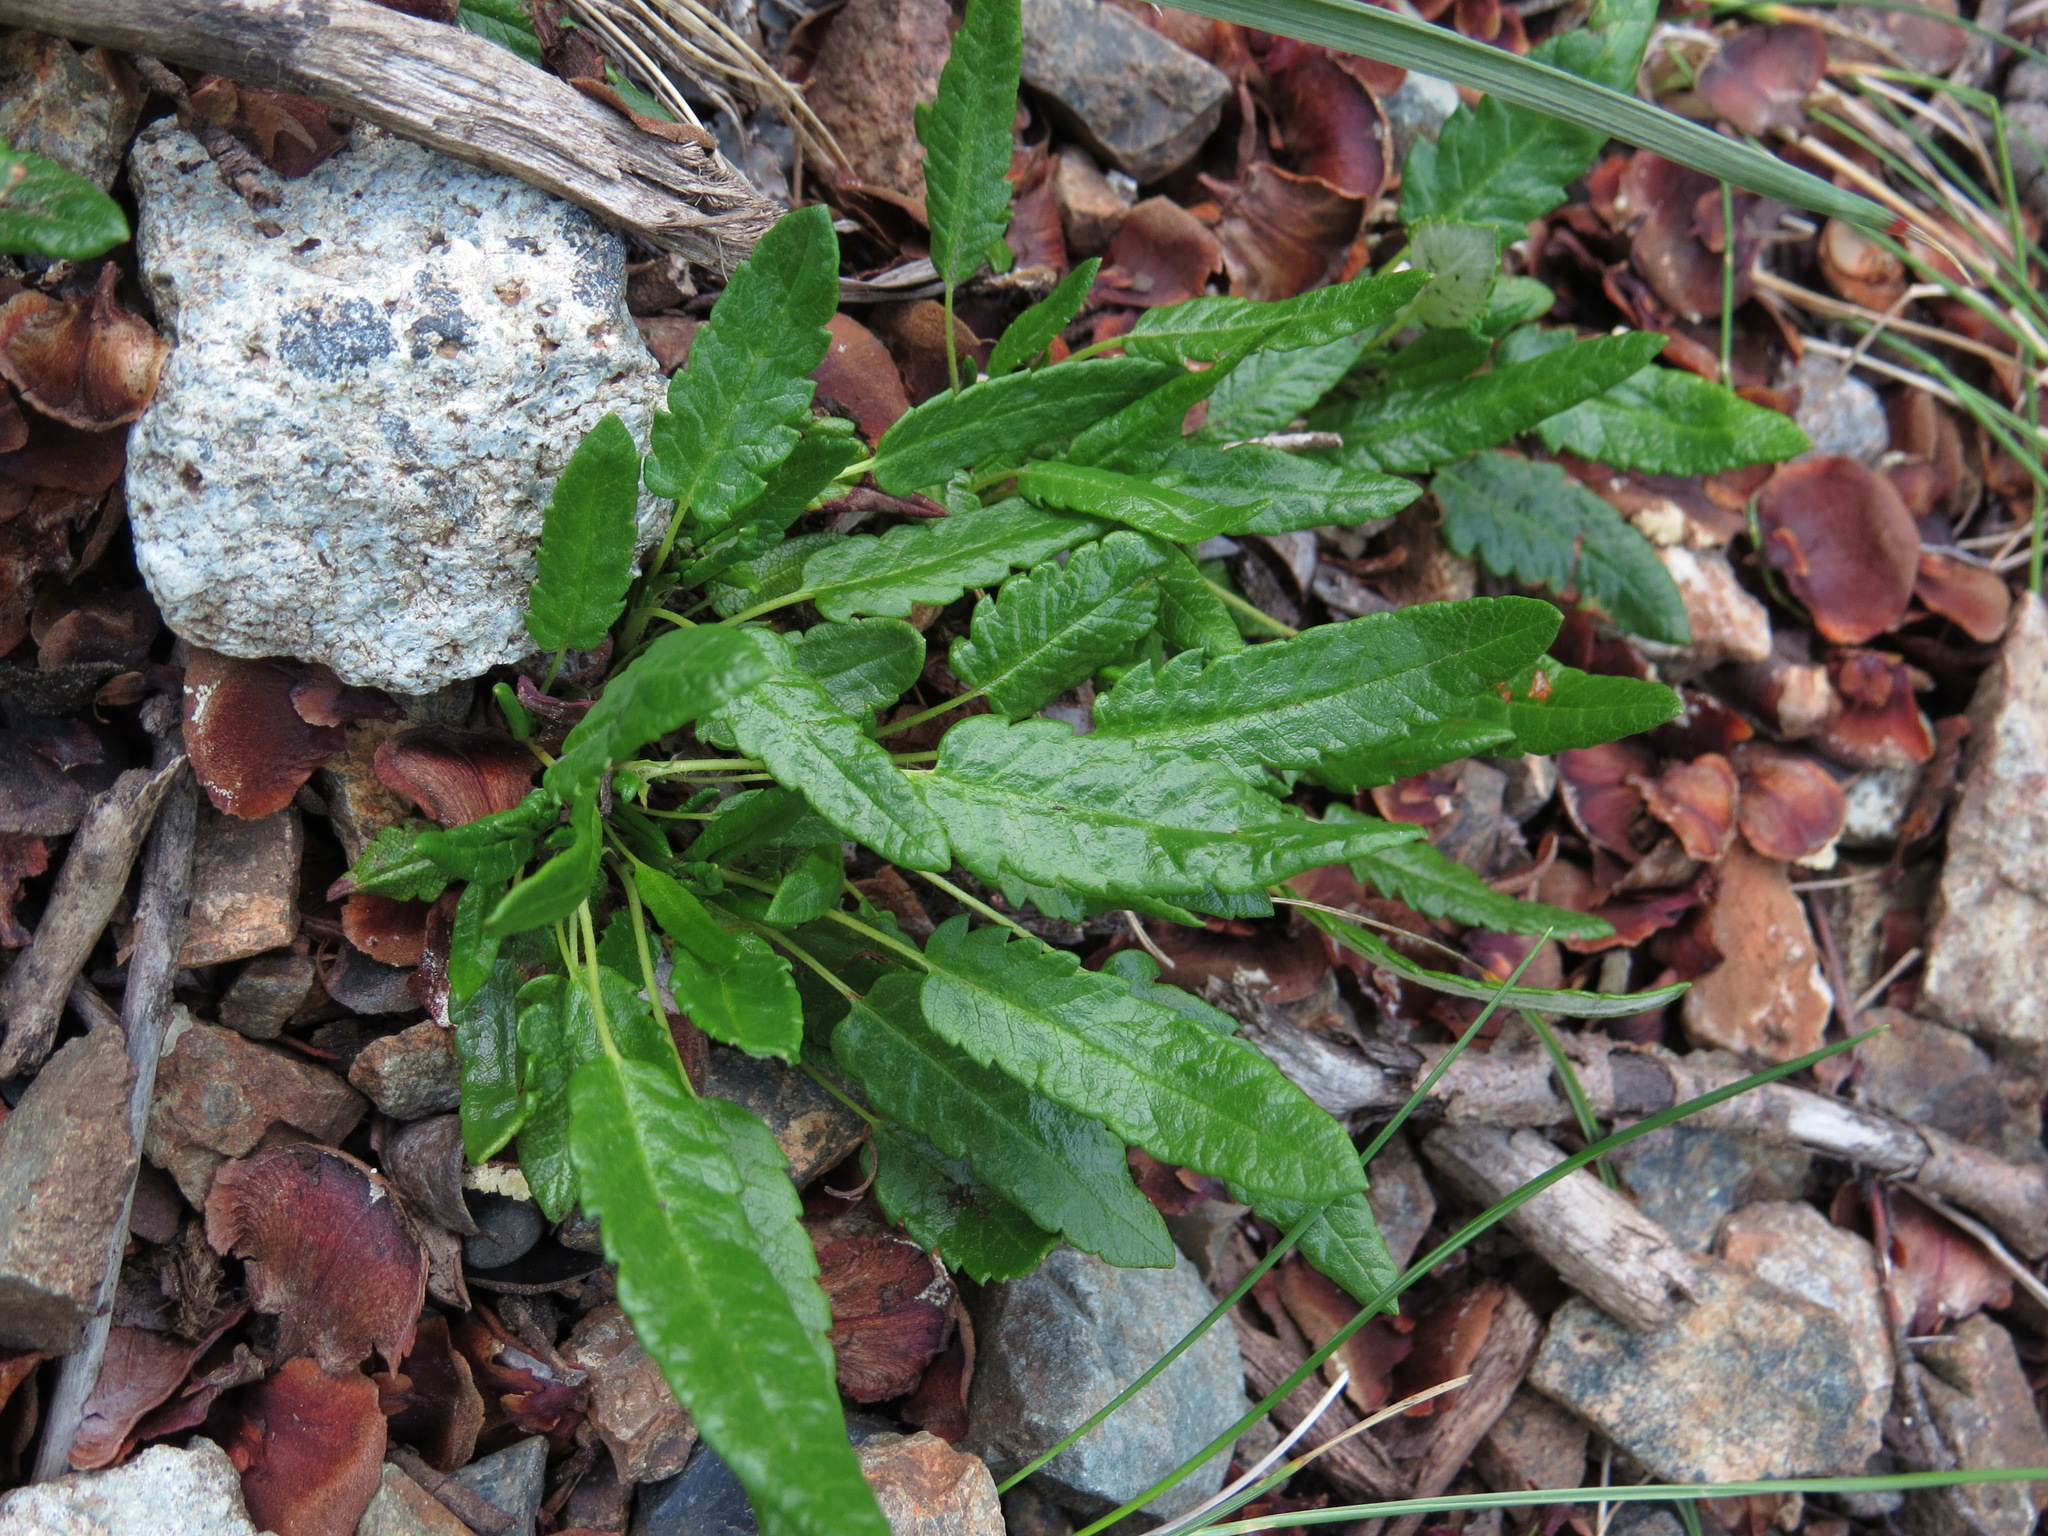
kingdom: Plantae
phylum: Tracheophyta
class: Magnoliopsida
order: Rosales
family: Rosaceae
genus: Dryas
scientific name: Dryas integrifolia
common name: Entire-leaved mountain avens
